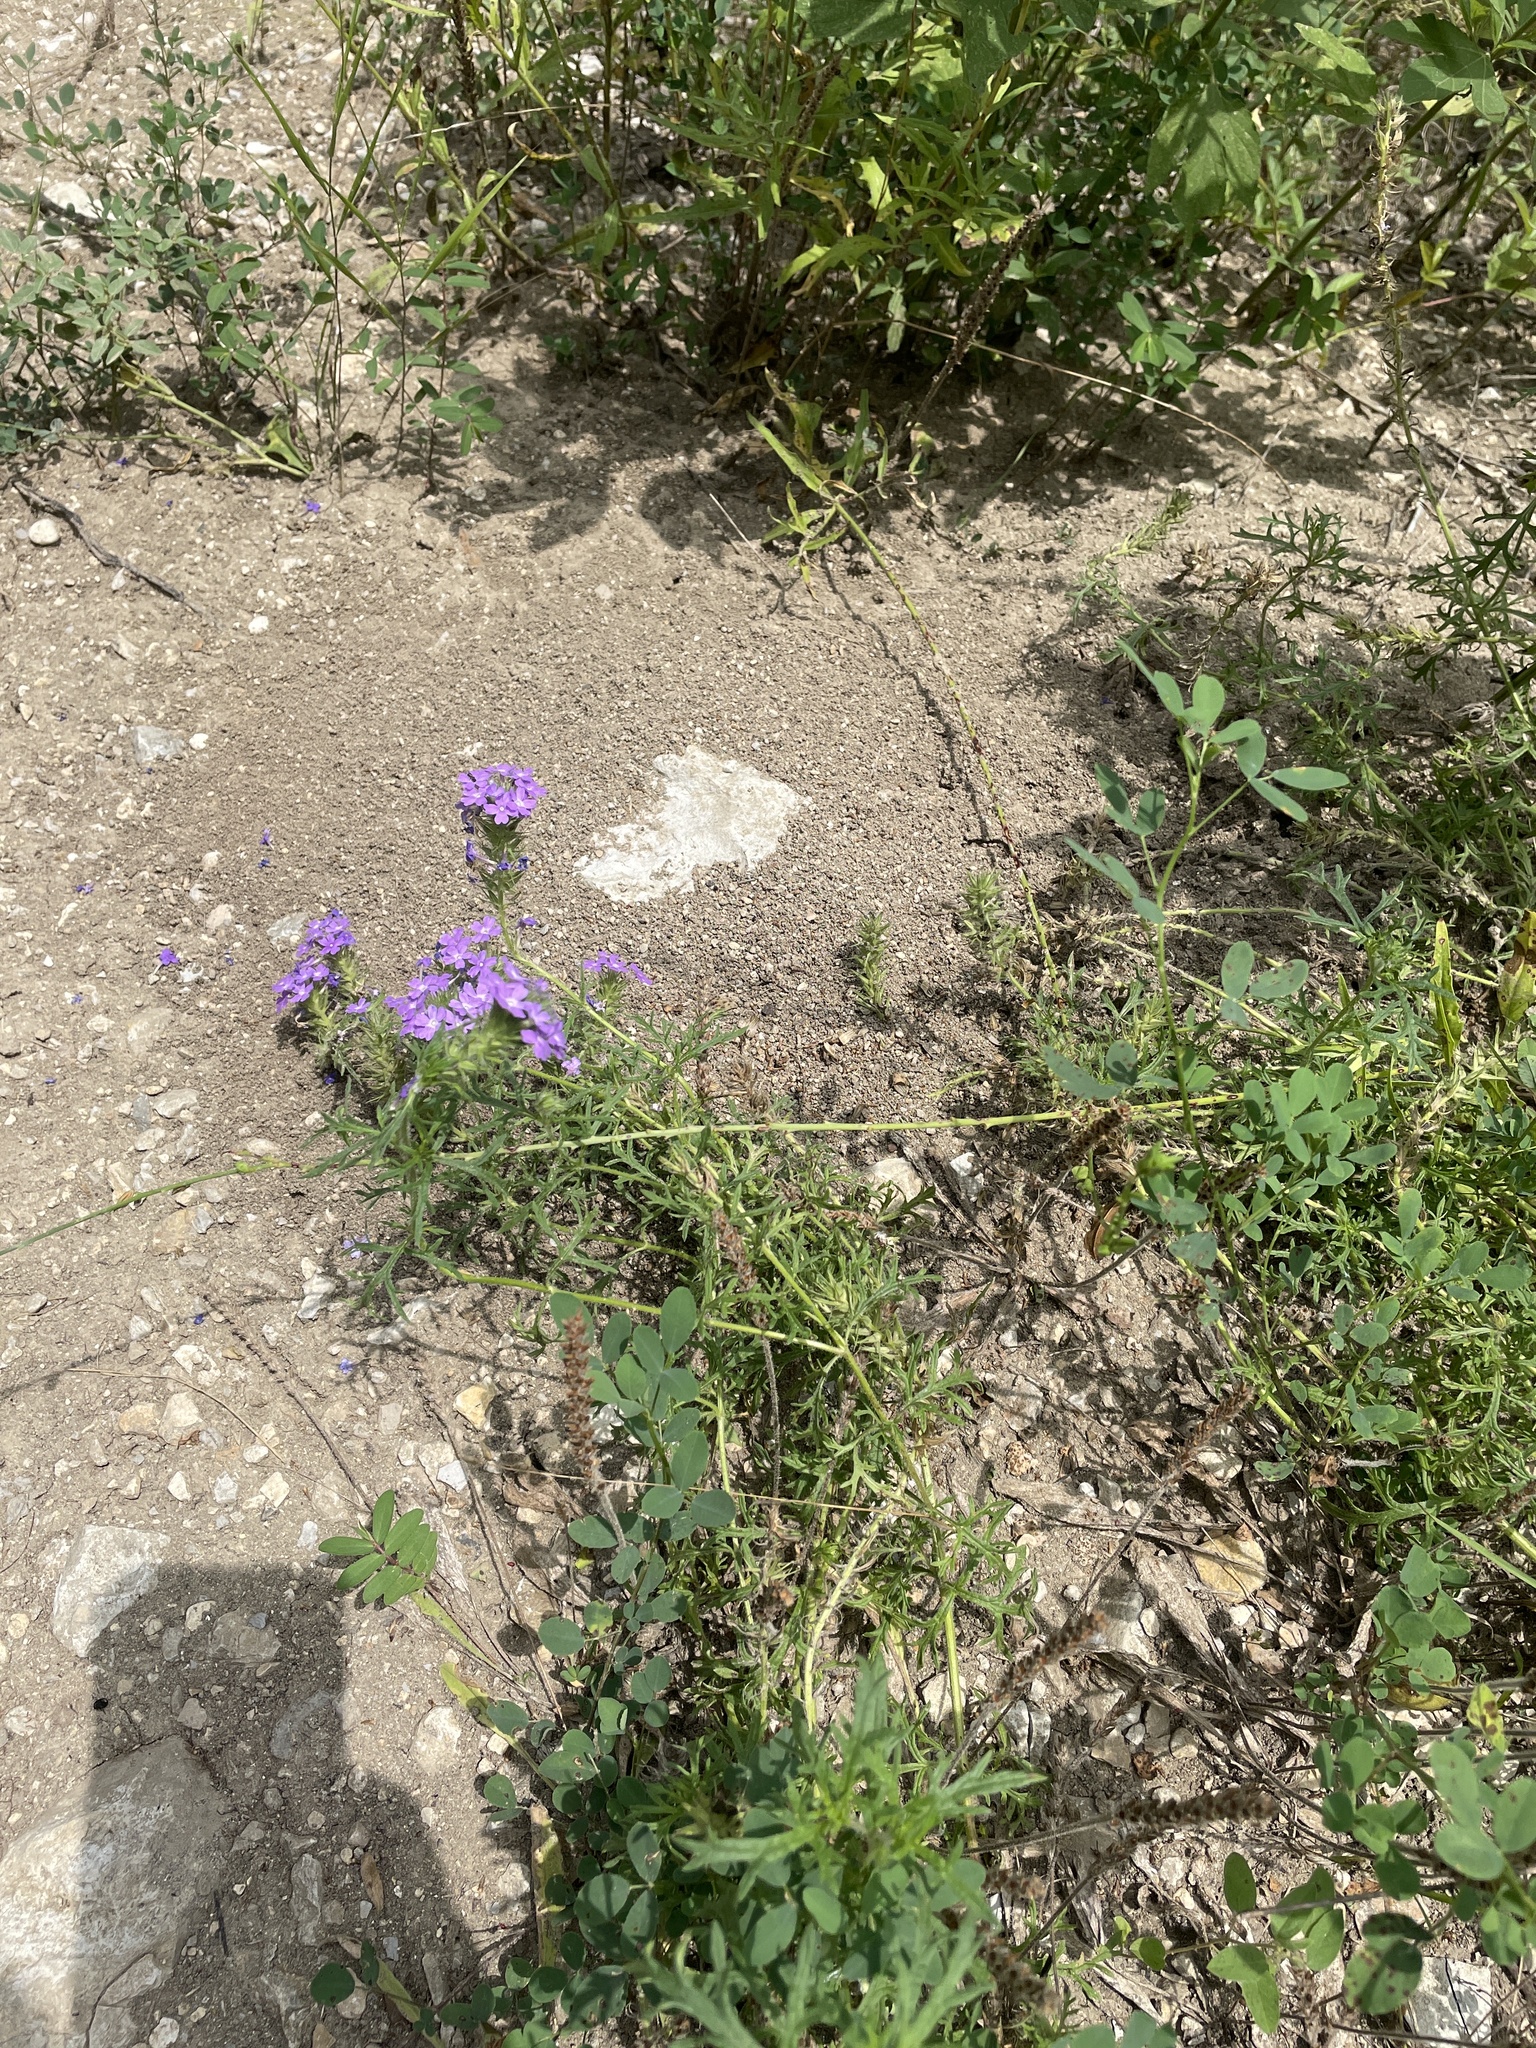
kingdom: Plantae
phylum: Tracheophyta
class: Magnoliopsida
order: Lamiales
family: Verbenaceae
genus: Verbena
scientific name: Verbena bipinnatifida
